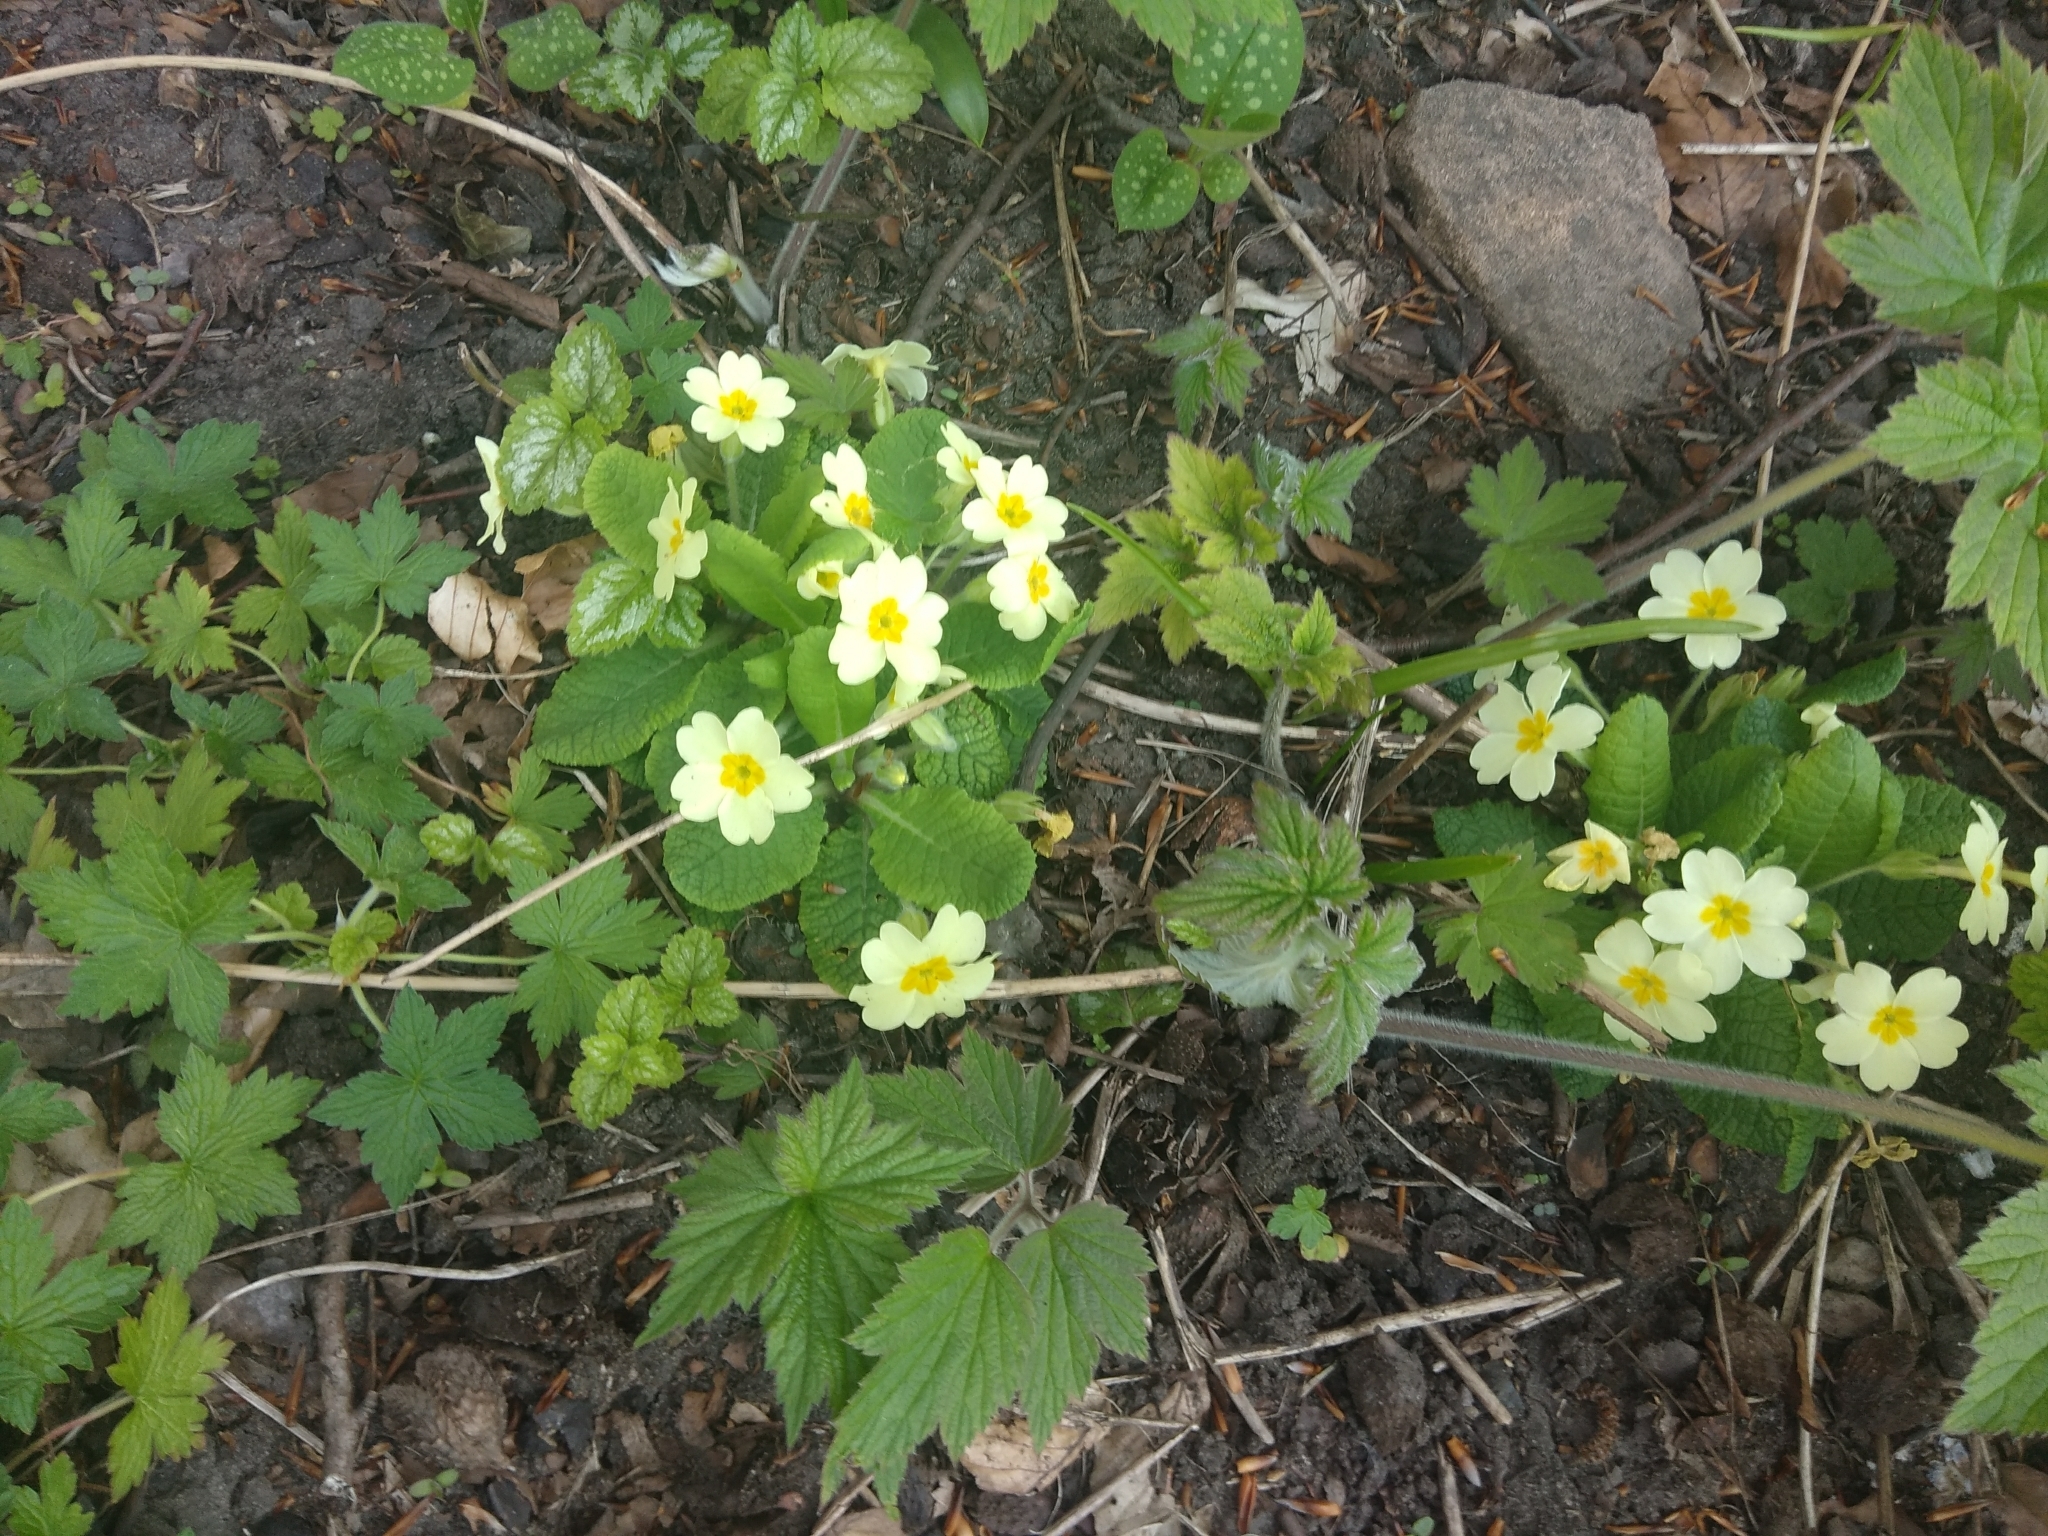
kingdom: Plantae
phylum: Tracheophyta
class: Magnoliopsida
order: Ericales
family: Primulaceae
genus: Primula
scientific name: Primula vulgaris
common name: Primrose
